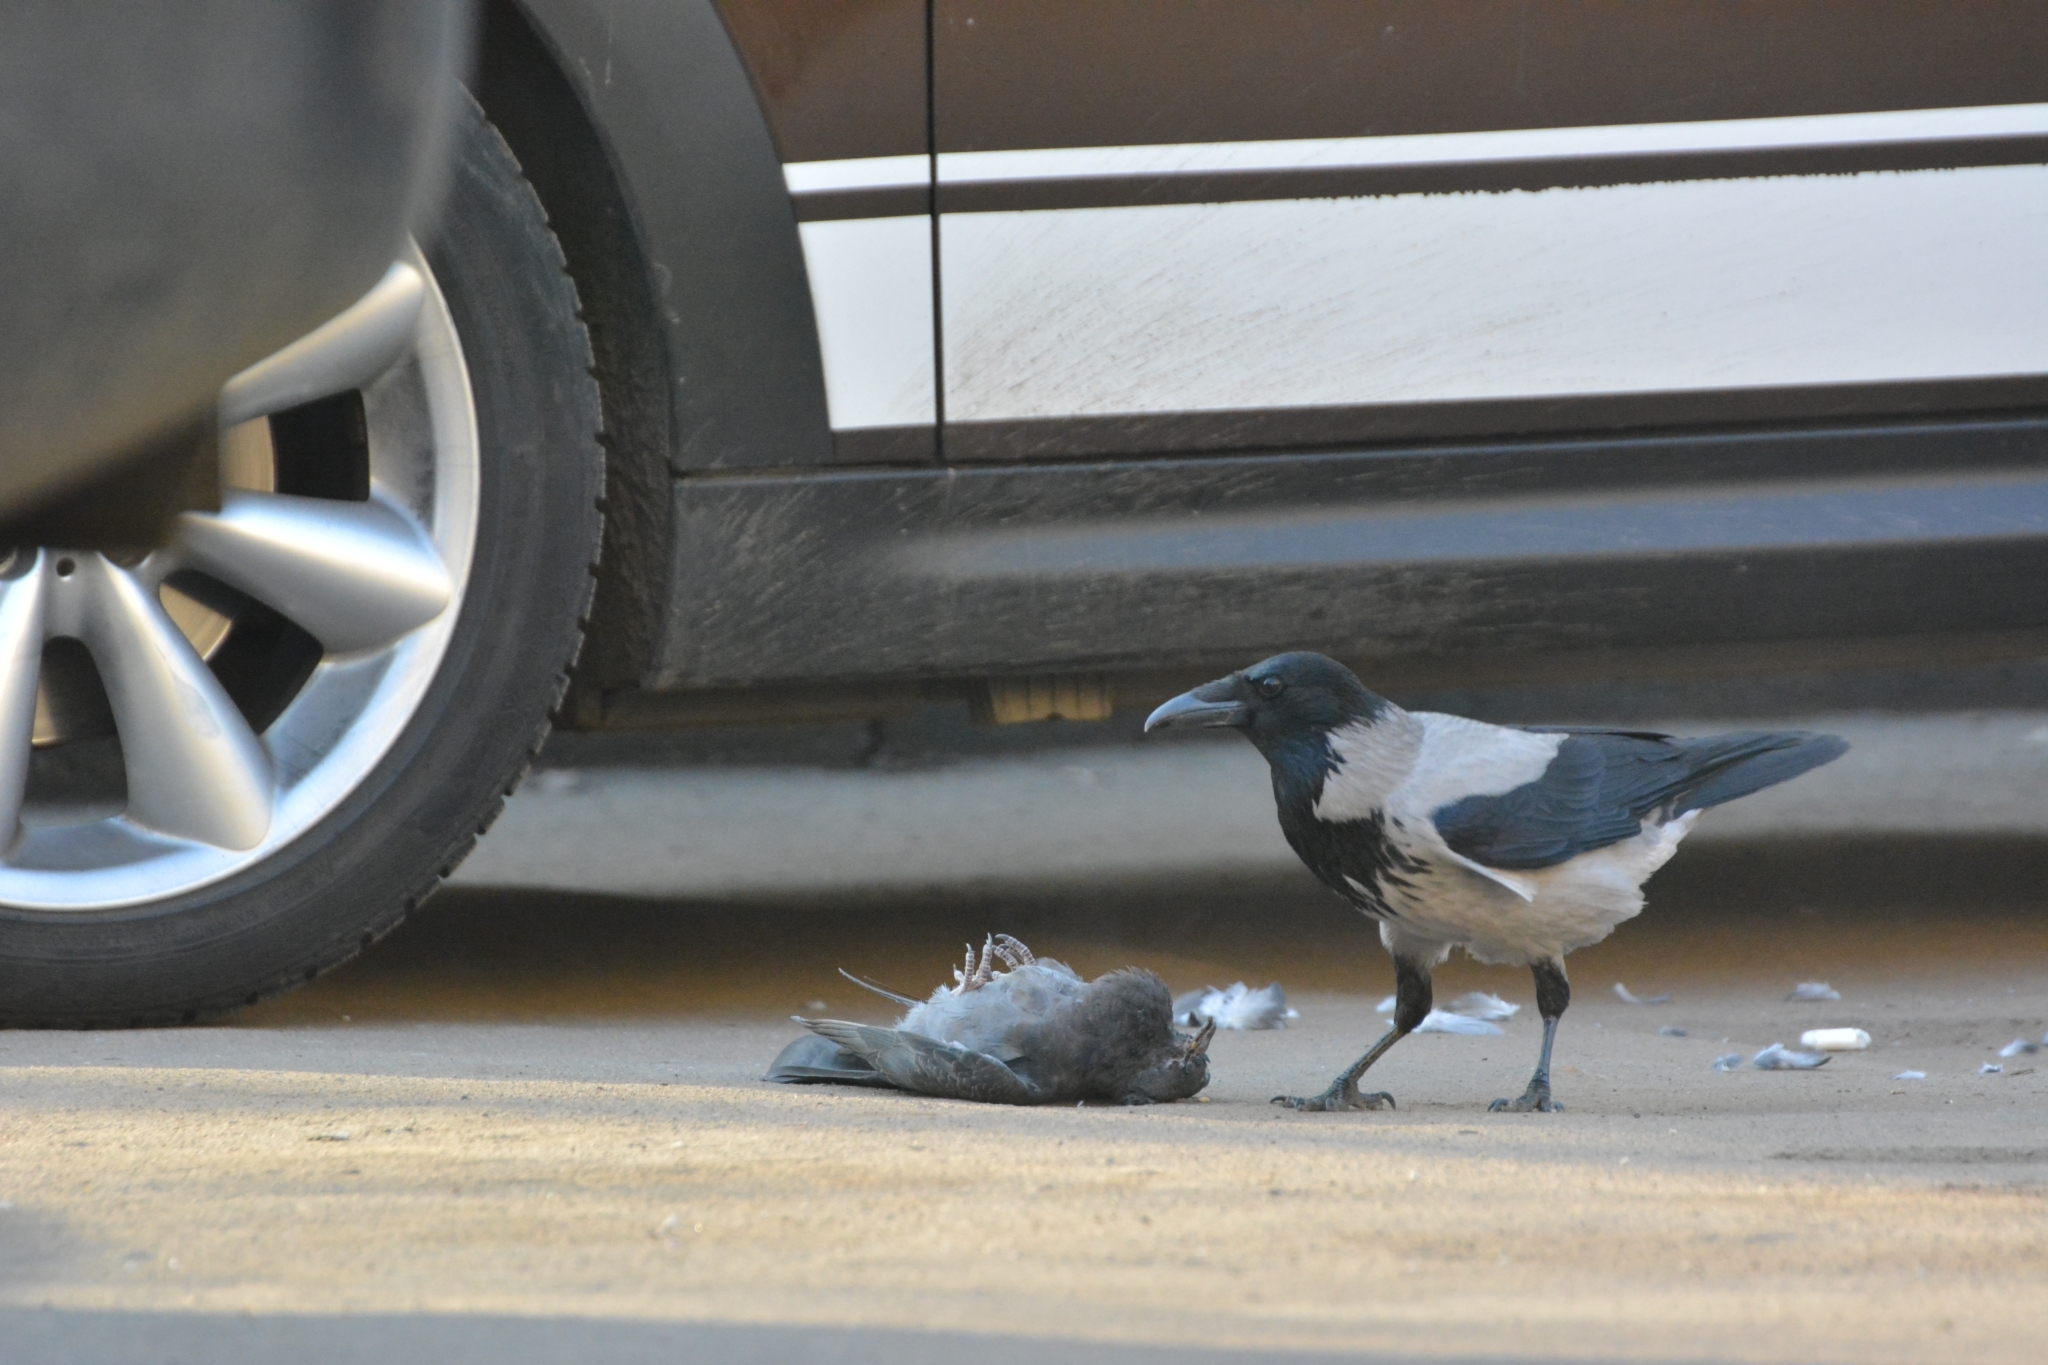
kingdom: Animalia
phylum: Chordata
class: Aves
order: Passeriformes
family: Corvidae
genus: Corvus
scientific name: Corvus cornix
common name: Hooded crow
